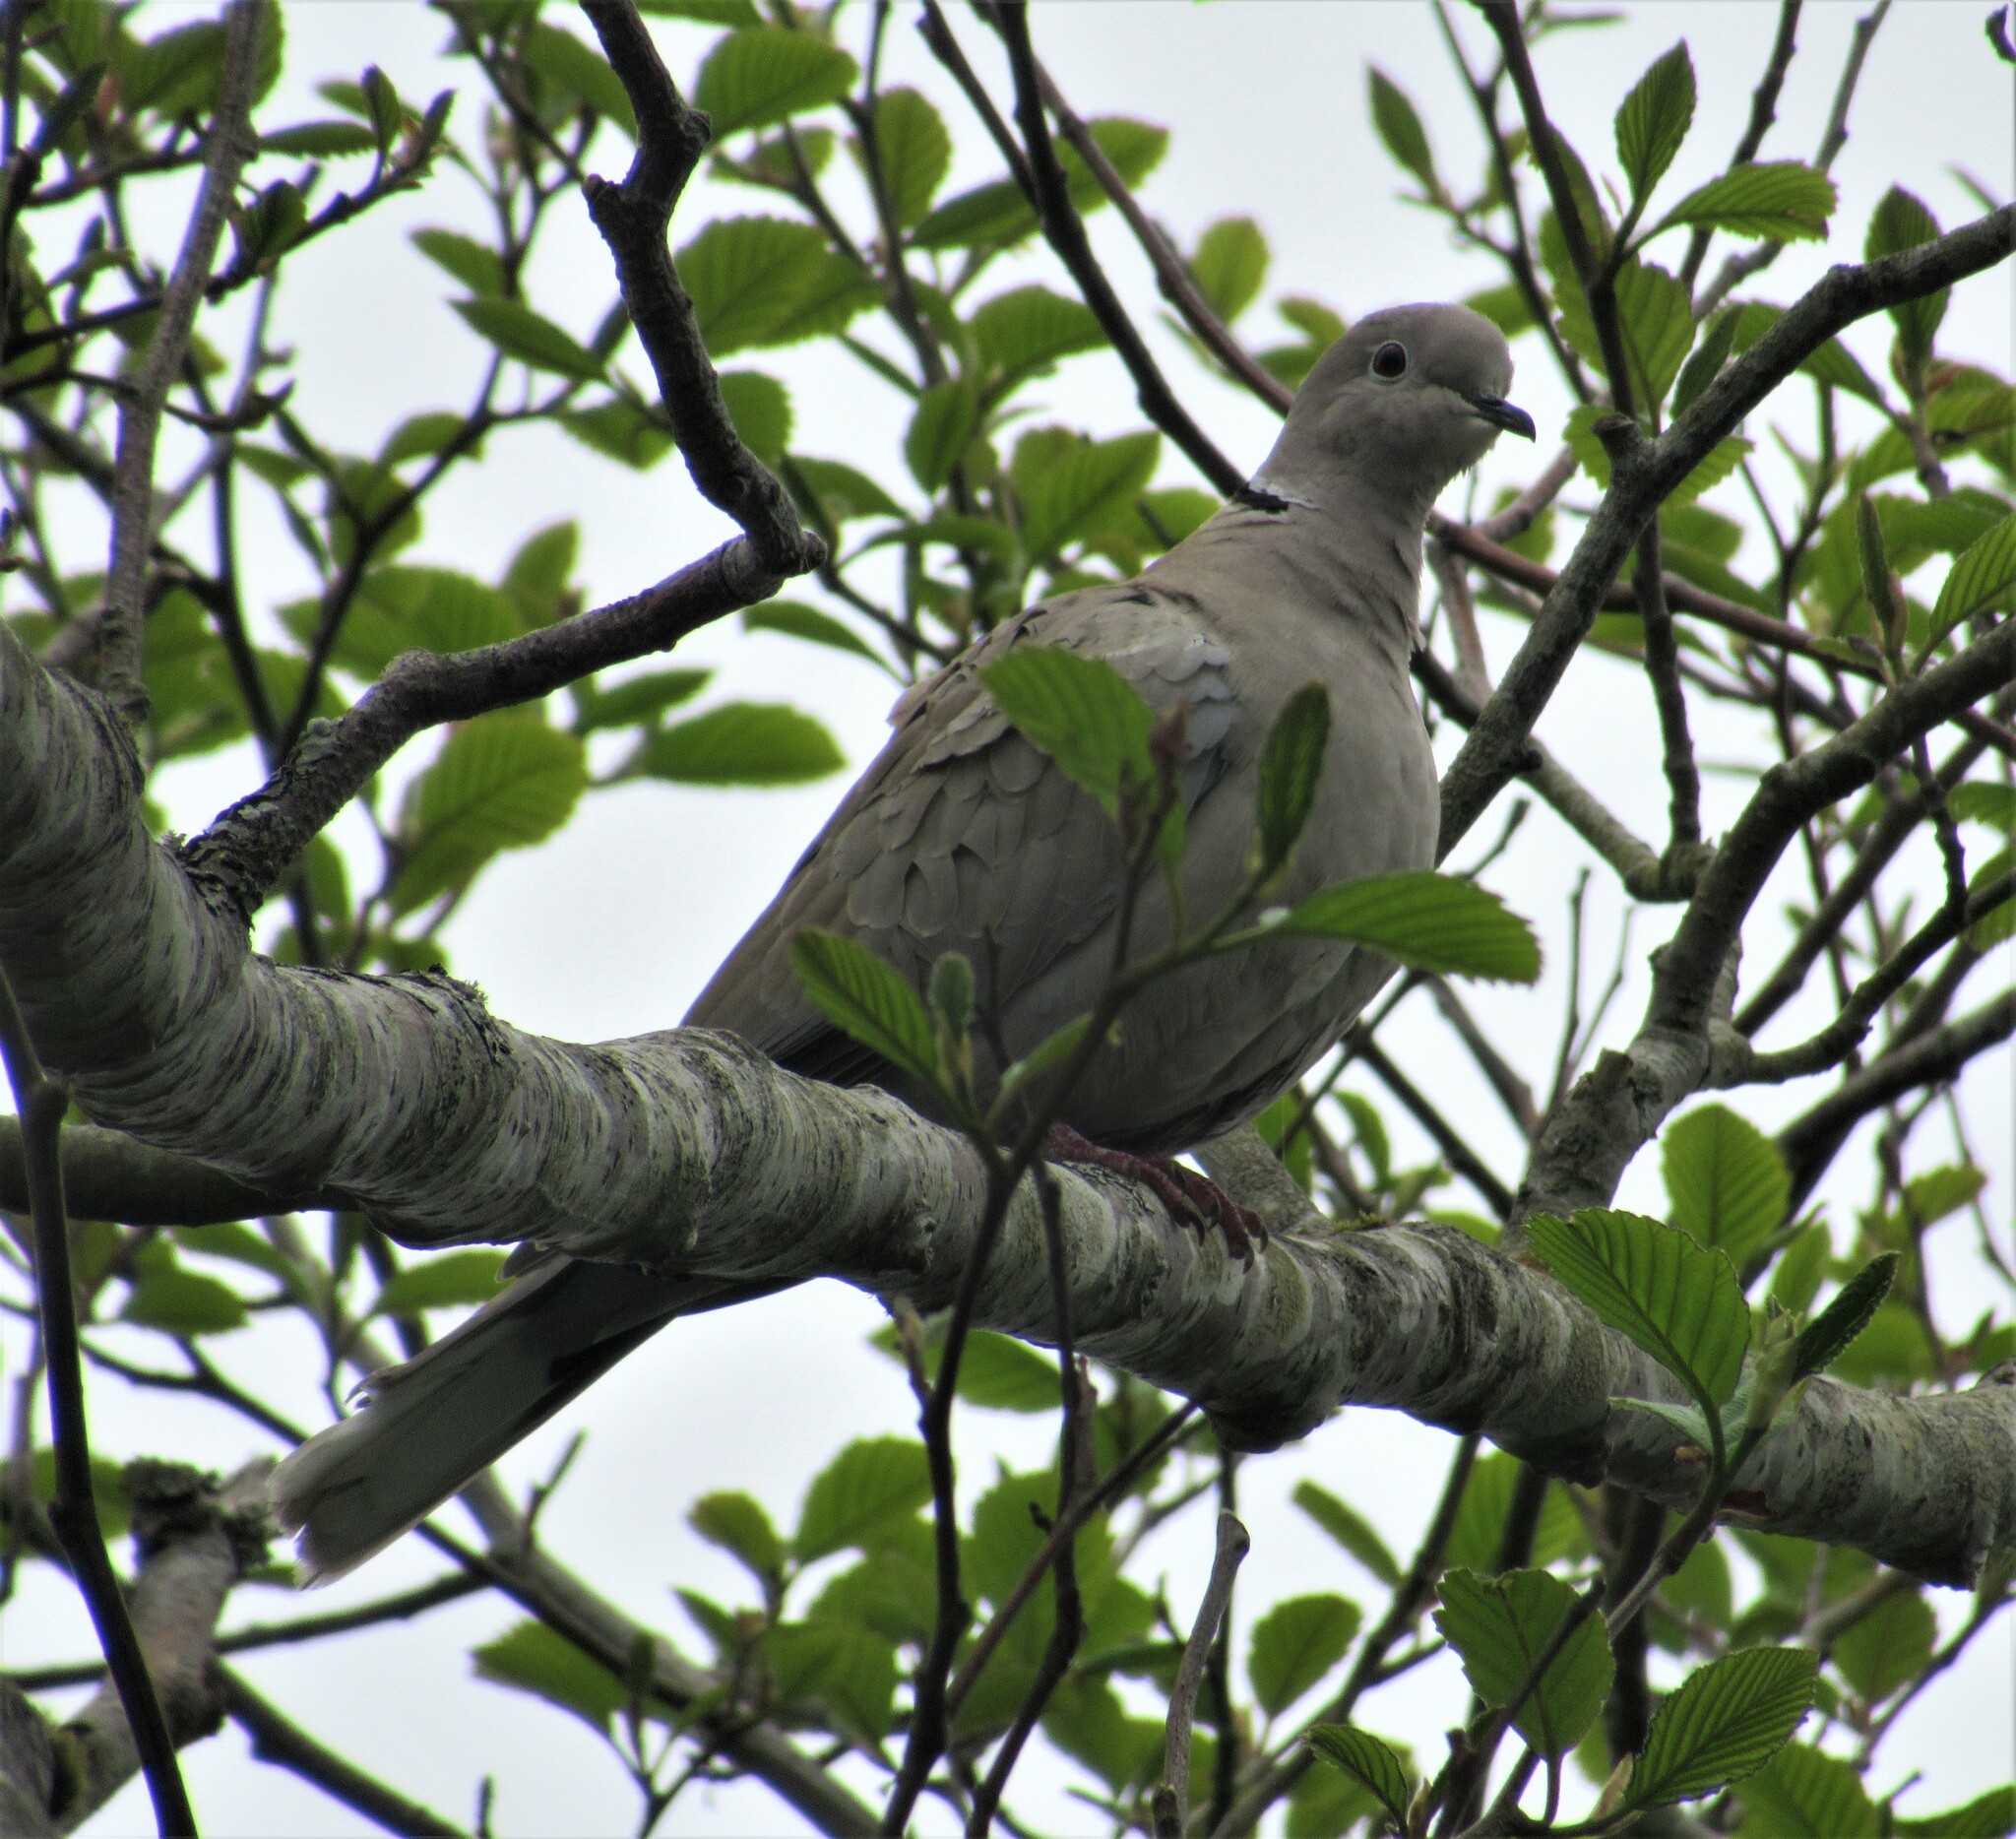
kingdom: Animalia
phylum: Chordata
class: Aves
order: Columbiformes
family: Columbidae
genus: Streptopelia
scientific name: Streptopelia decaocto
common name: Eurasian collared dove
